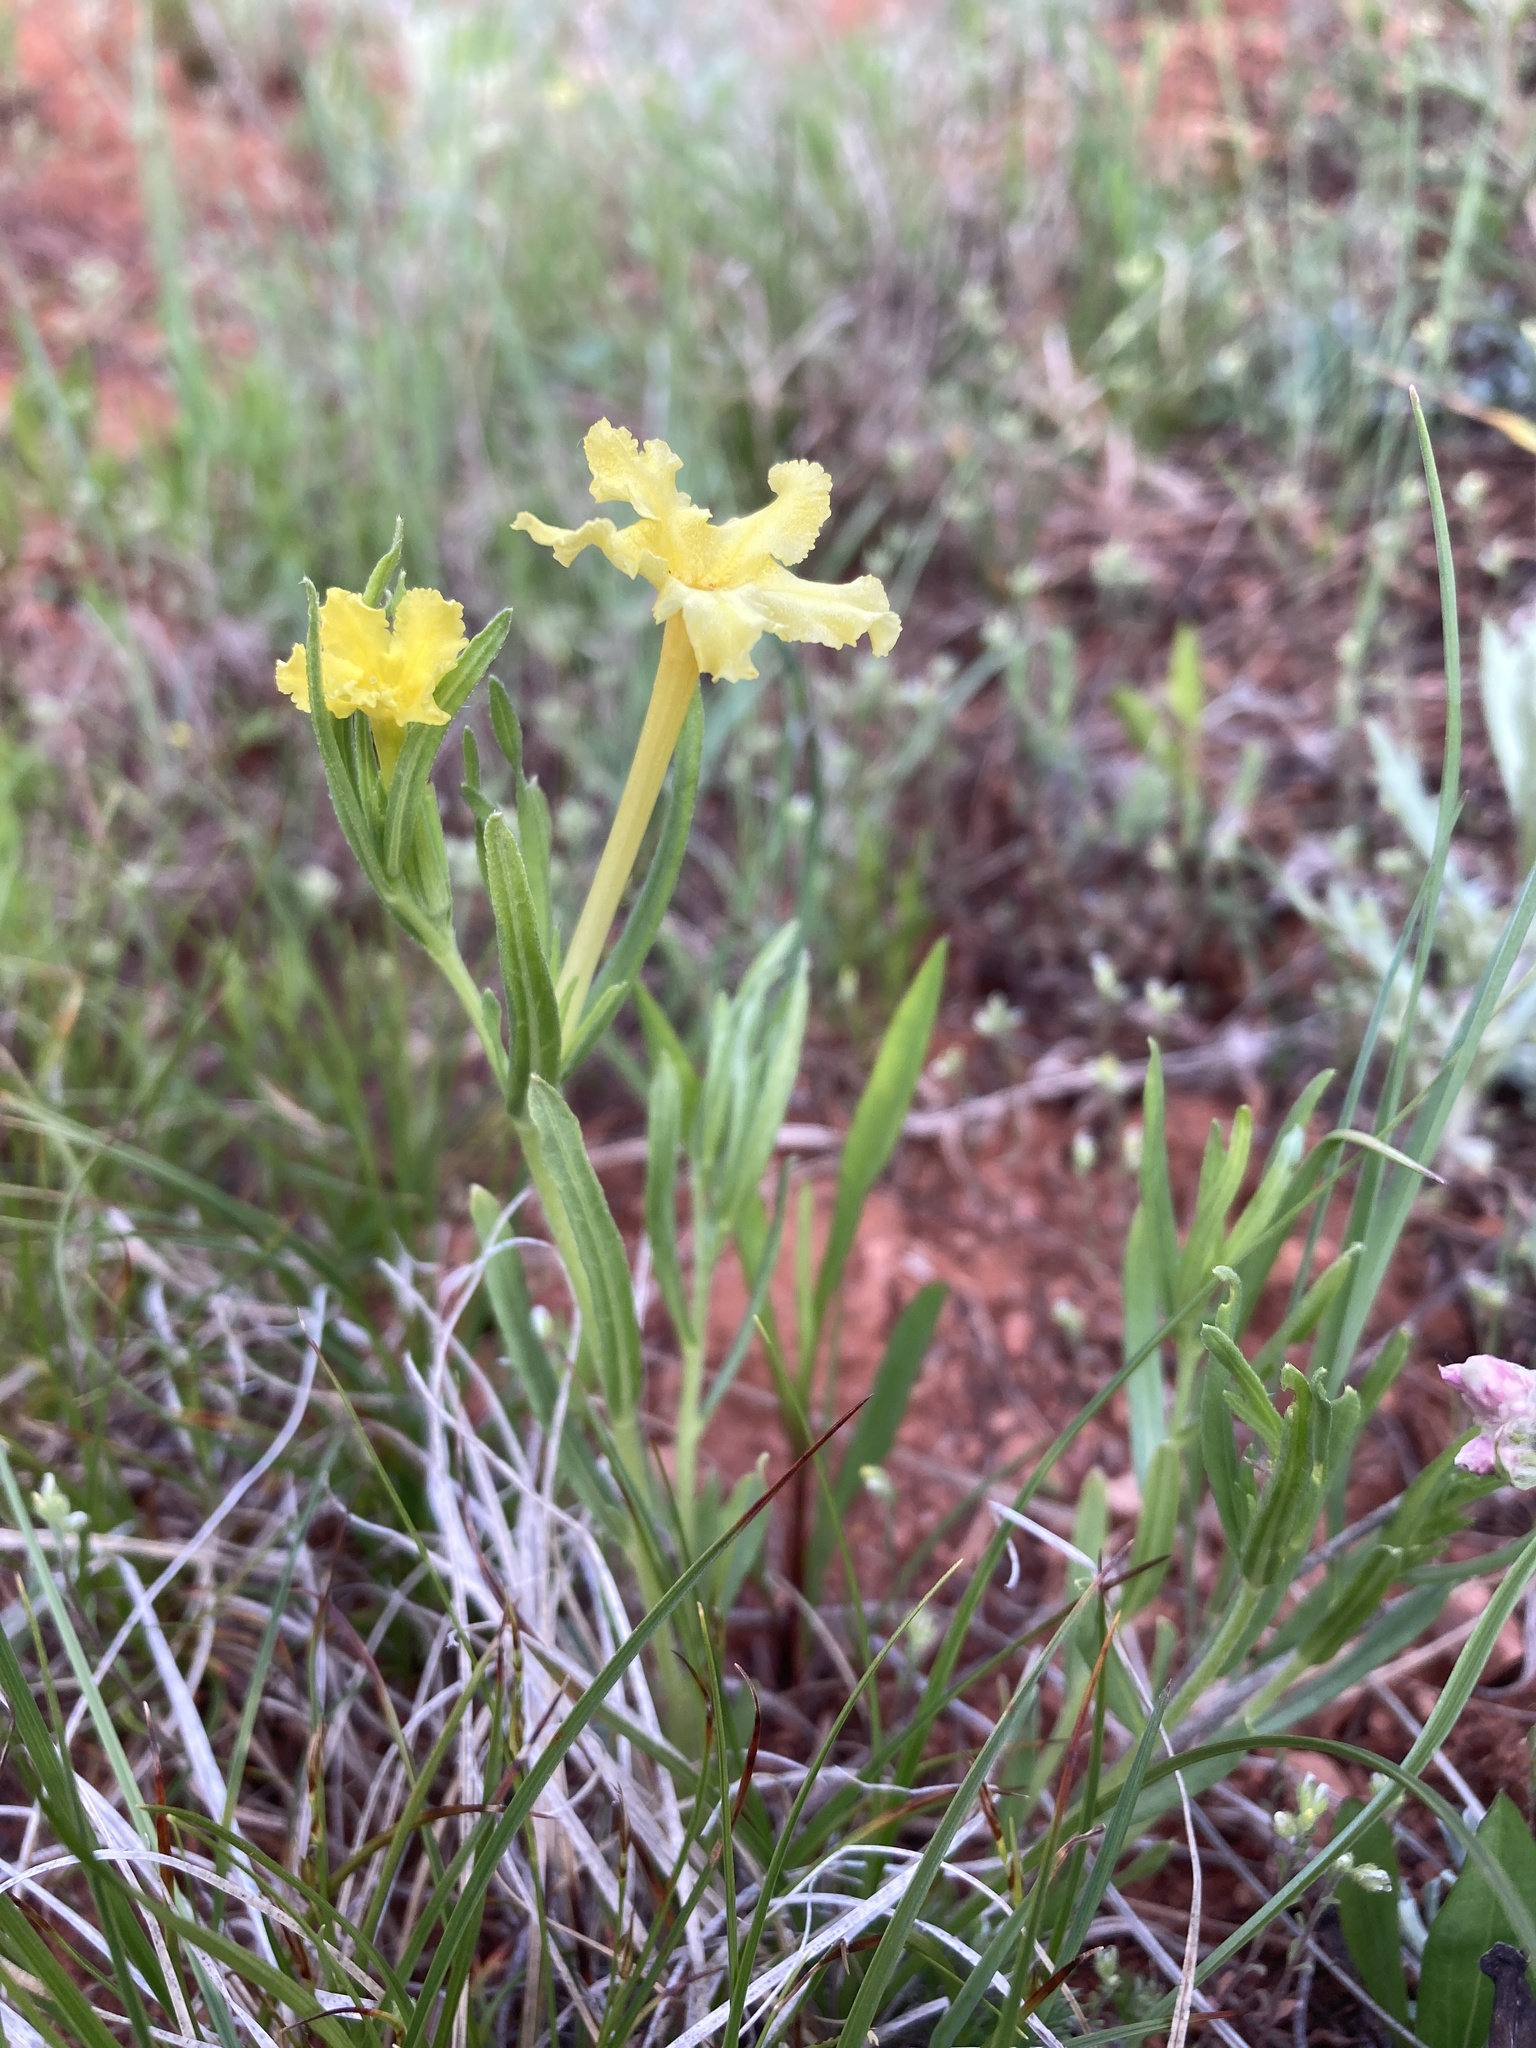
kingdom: Plantae
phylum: Tracheophyta
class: Magnoliopsida
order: Boraginales
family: Boraginaceae
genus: Lithospermum
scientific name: Lithospermum incisum
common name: Fringed gromwell
